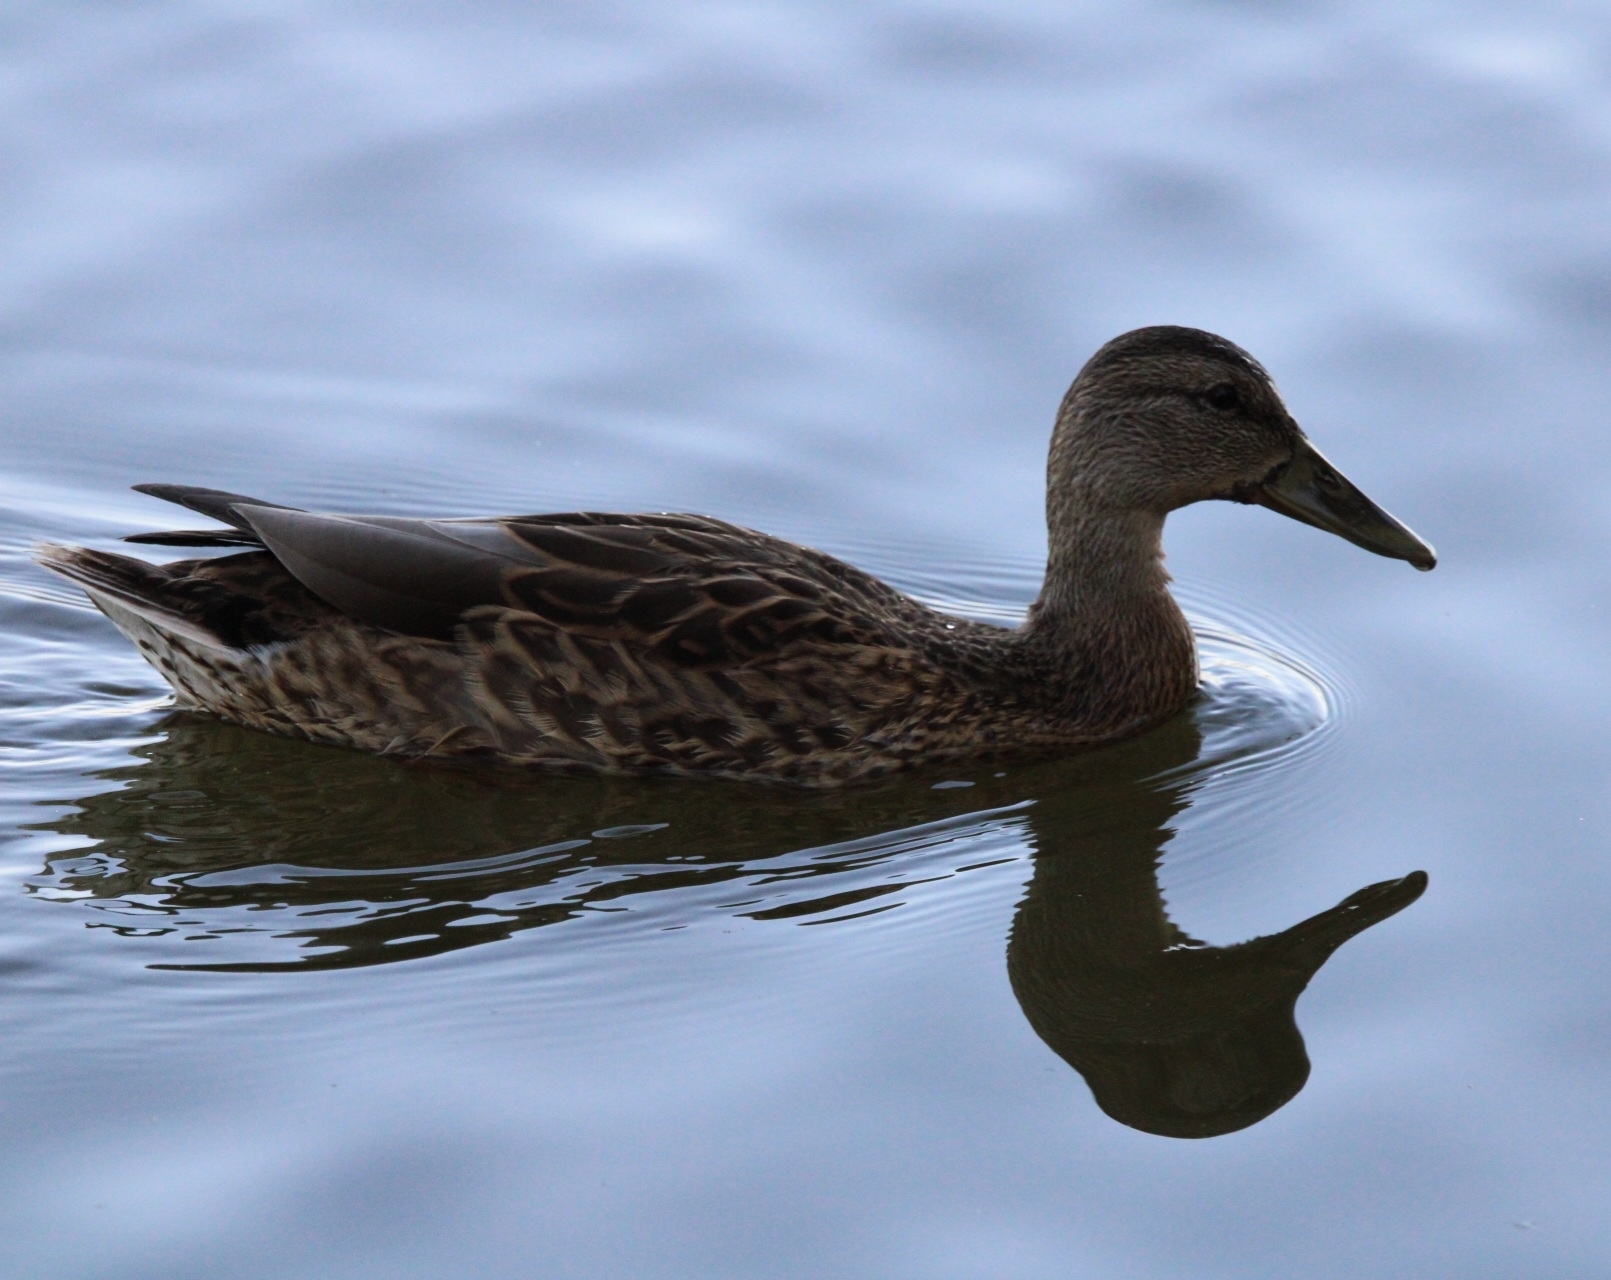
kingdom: Animalia
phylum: Chordata
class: Aves
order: Anseriformes
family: Anatidae
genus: Anas
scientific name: Anas platyrhynchos
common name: Mallard
